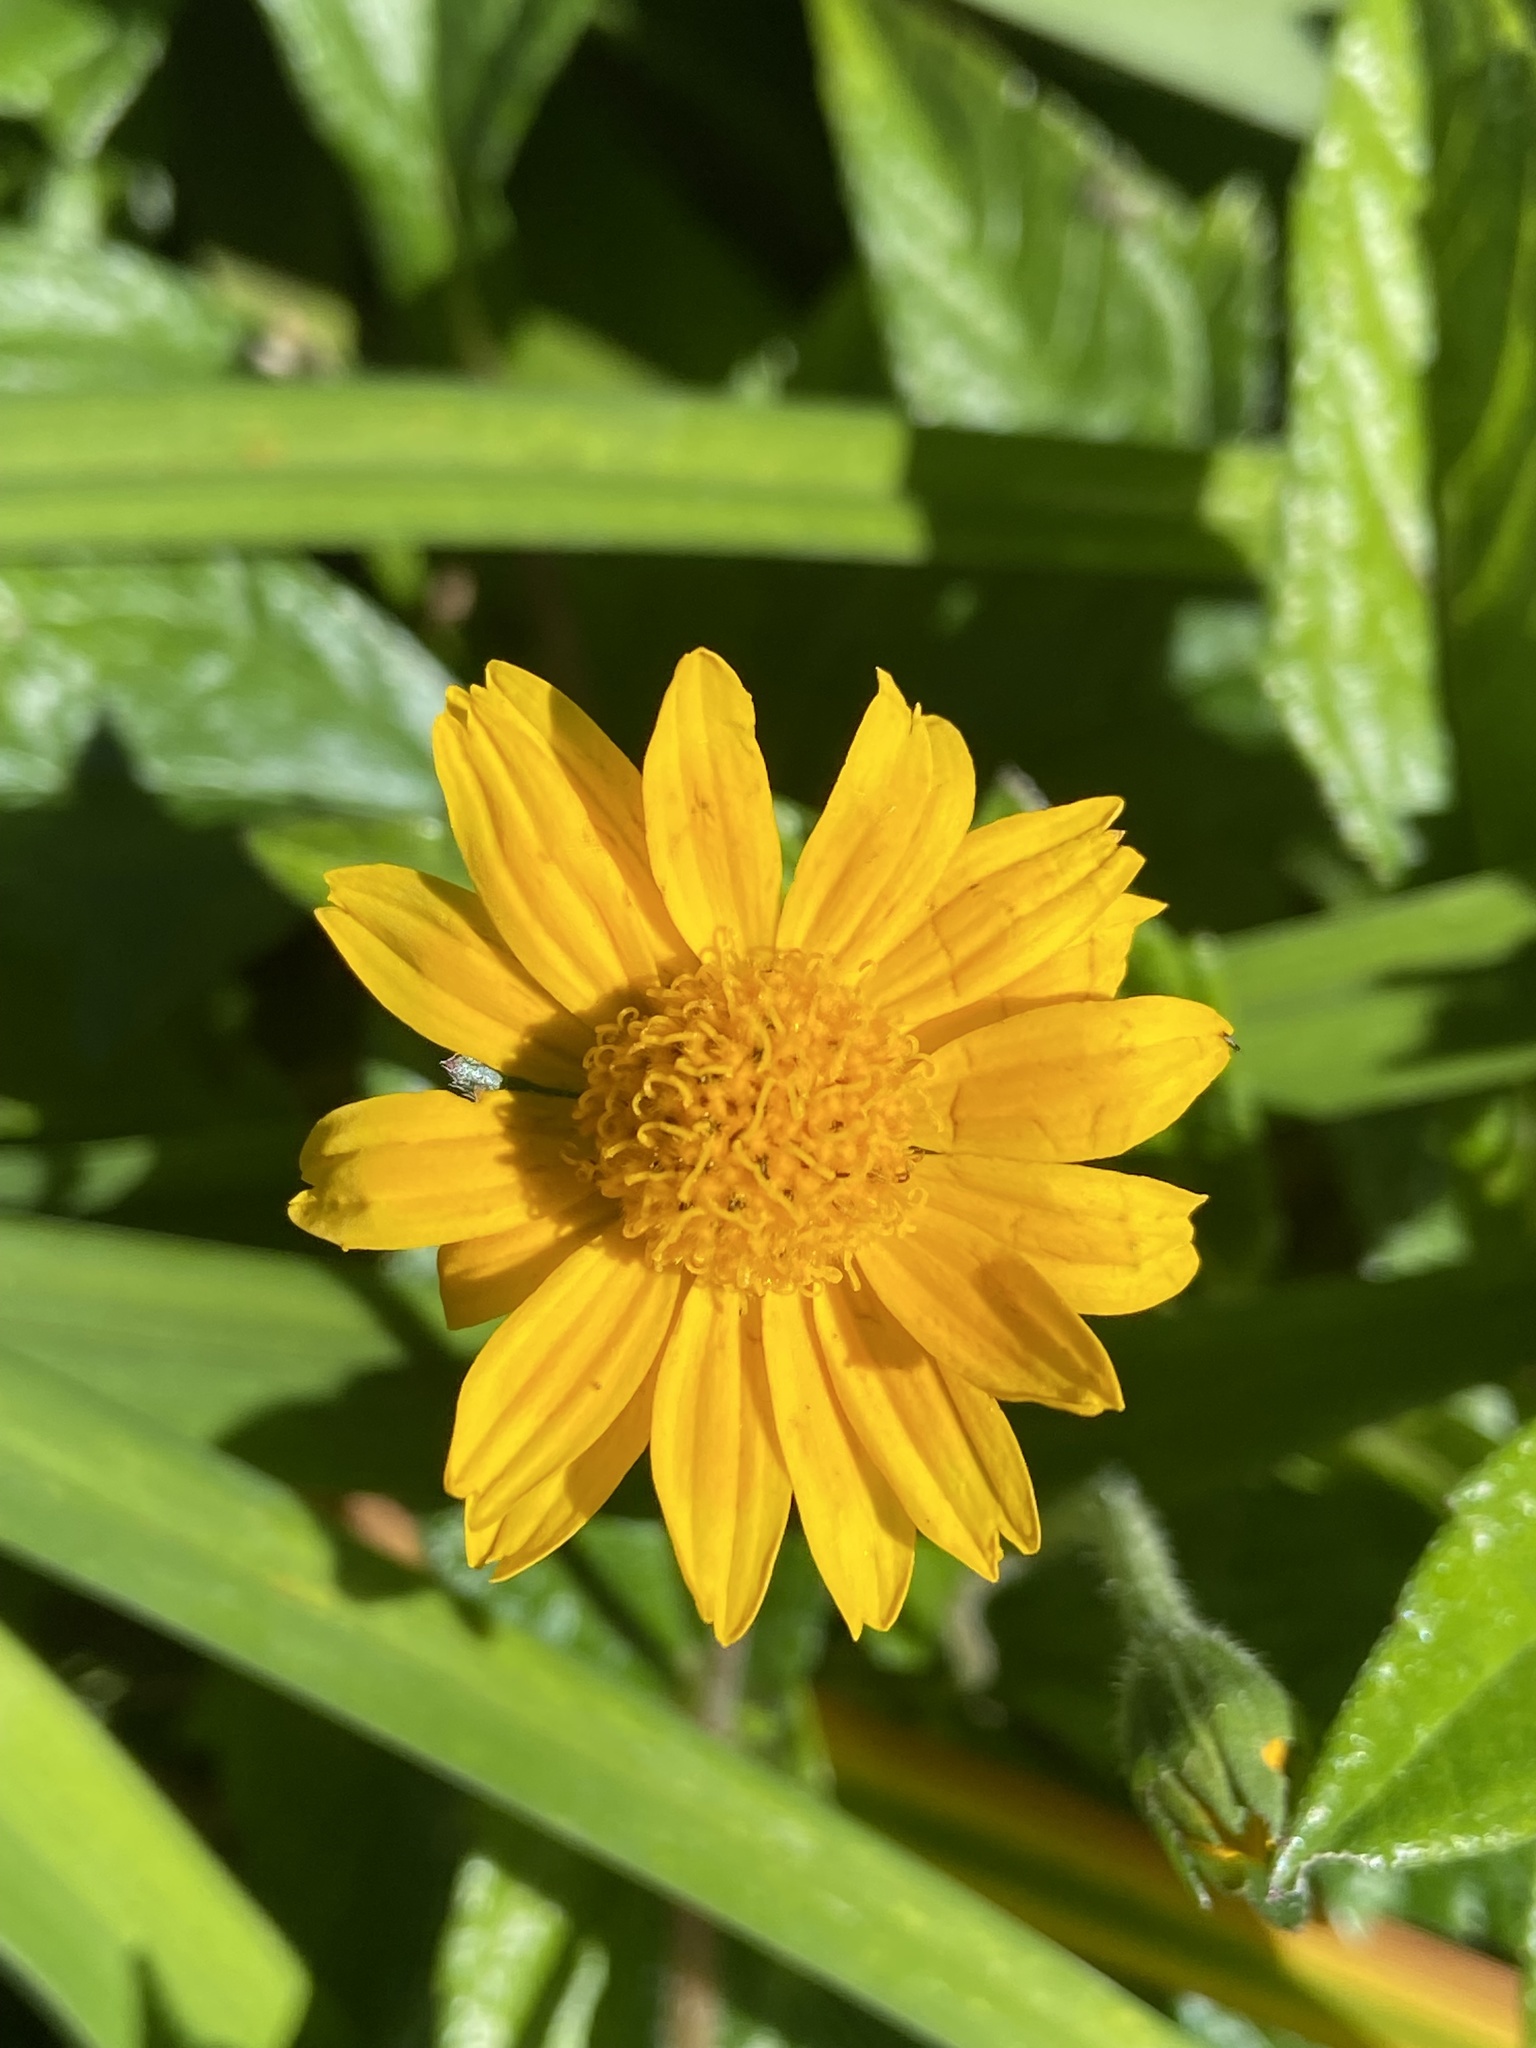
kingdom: Plantae
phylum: Tracheophyta
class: Magnoliopsida
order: Asterales
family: Asteraceae
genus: Sphagneticola
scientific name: Sphagneticola trilobata
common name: Bay biscayne creeping-oxeye
